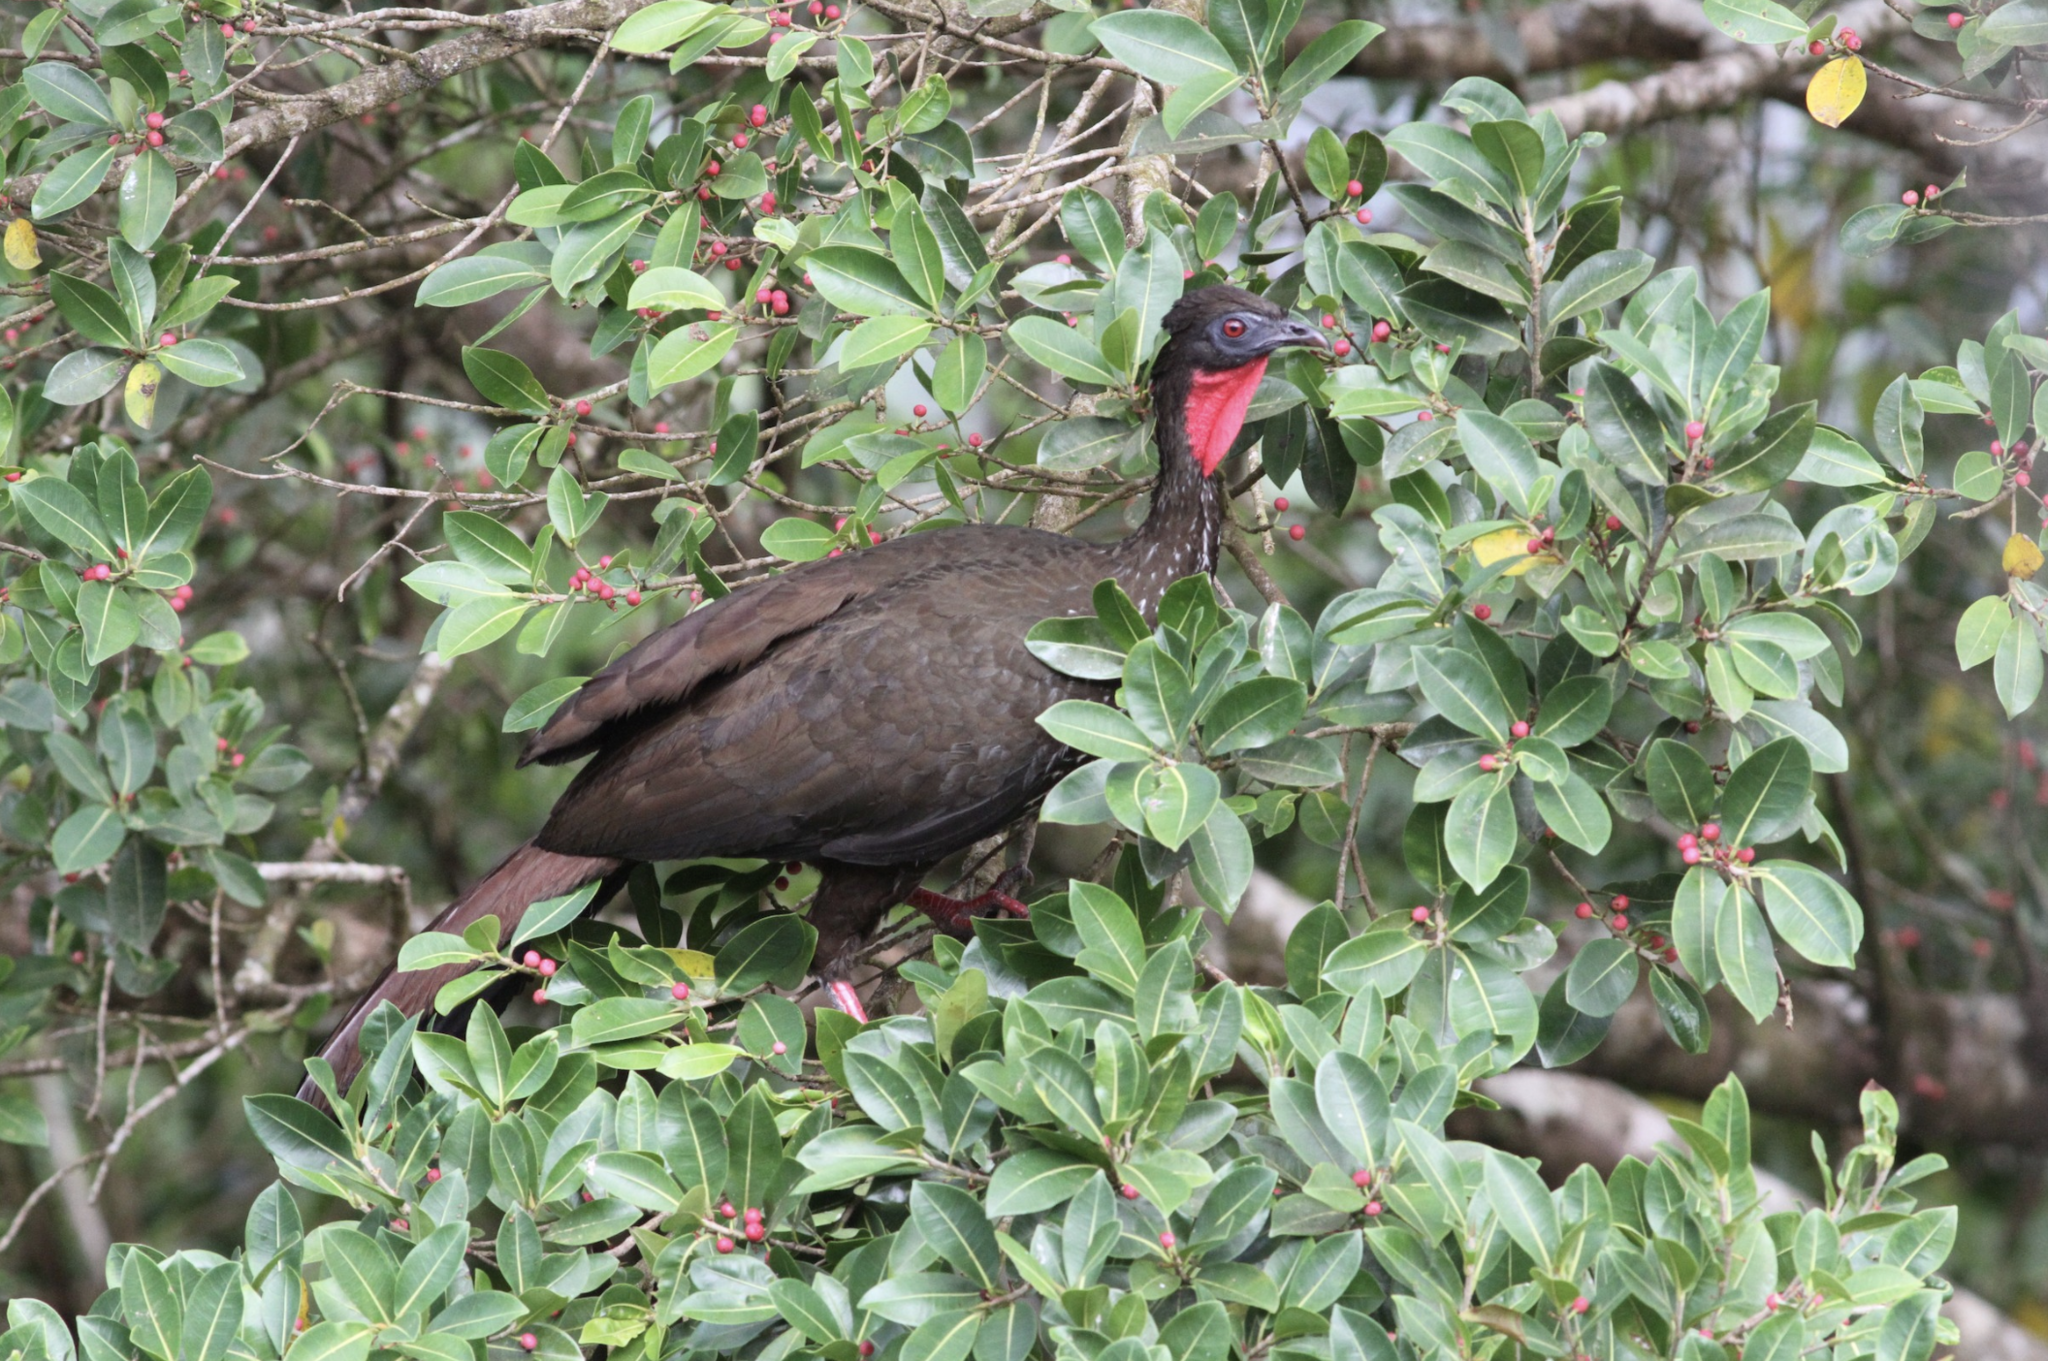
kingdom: Animalia
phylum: Chordata
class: Aves
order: Galliformes
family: Cracidae
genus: Penelope
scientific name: Penelope purpurascens
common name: Crested guan
